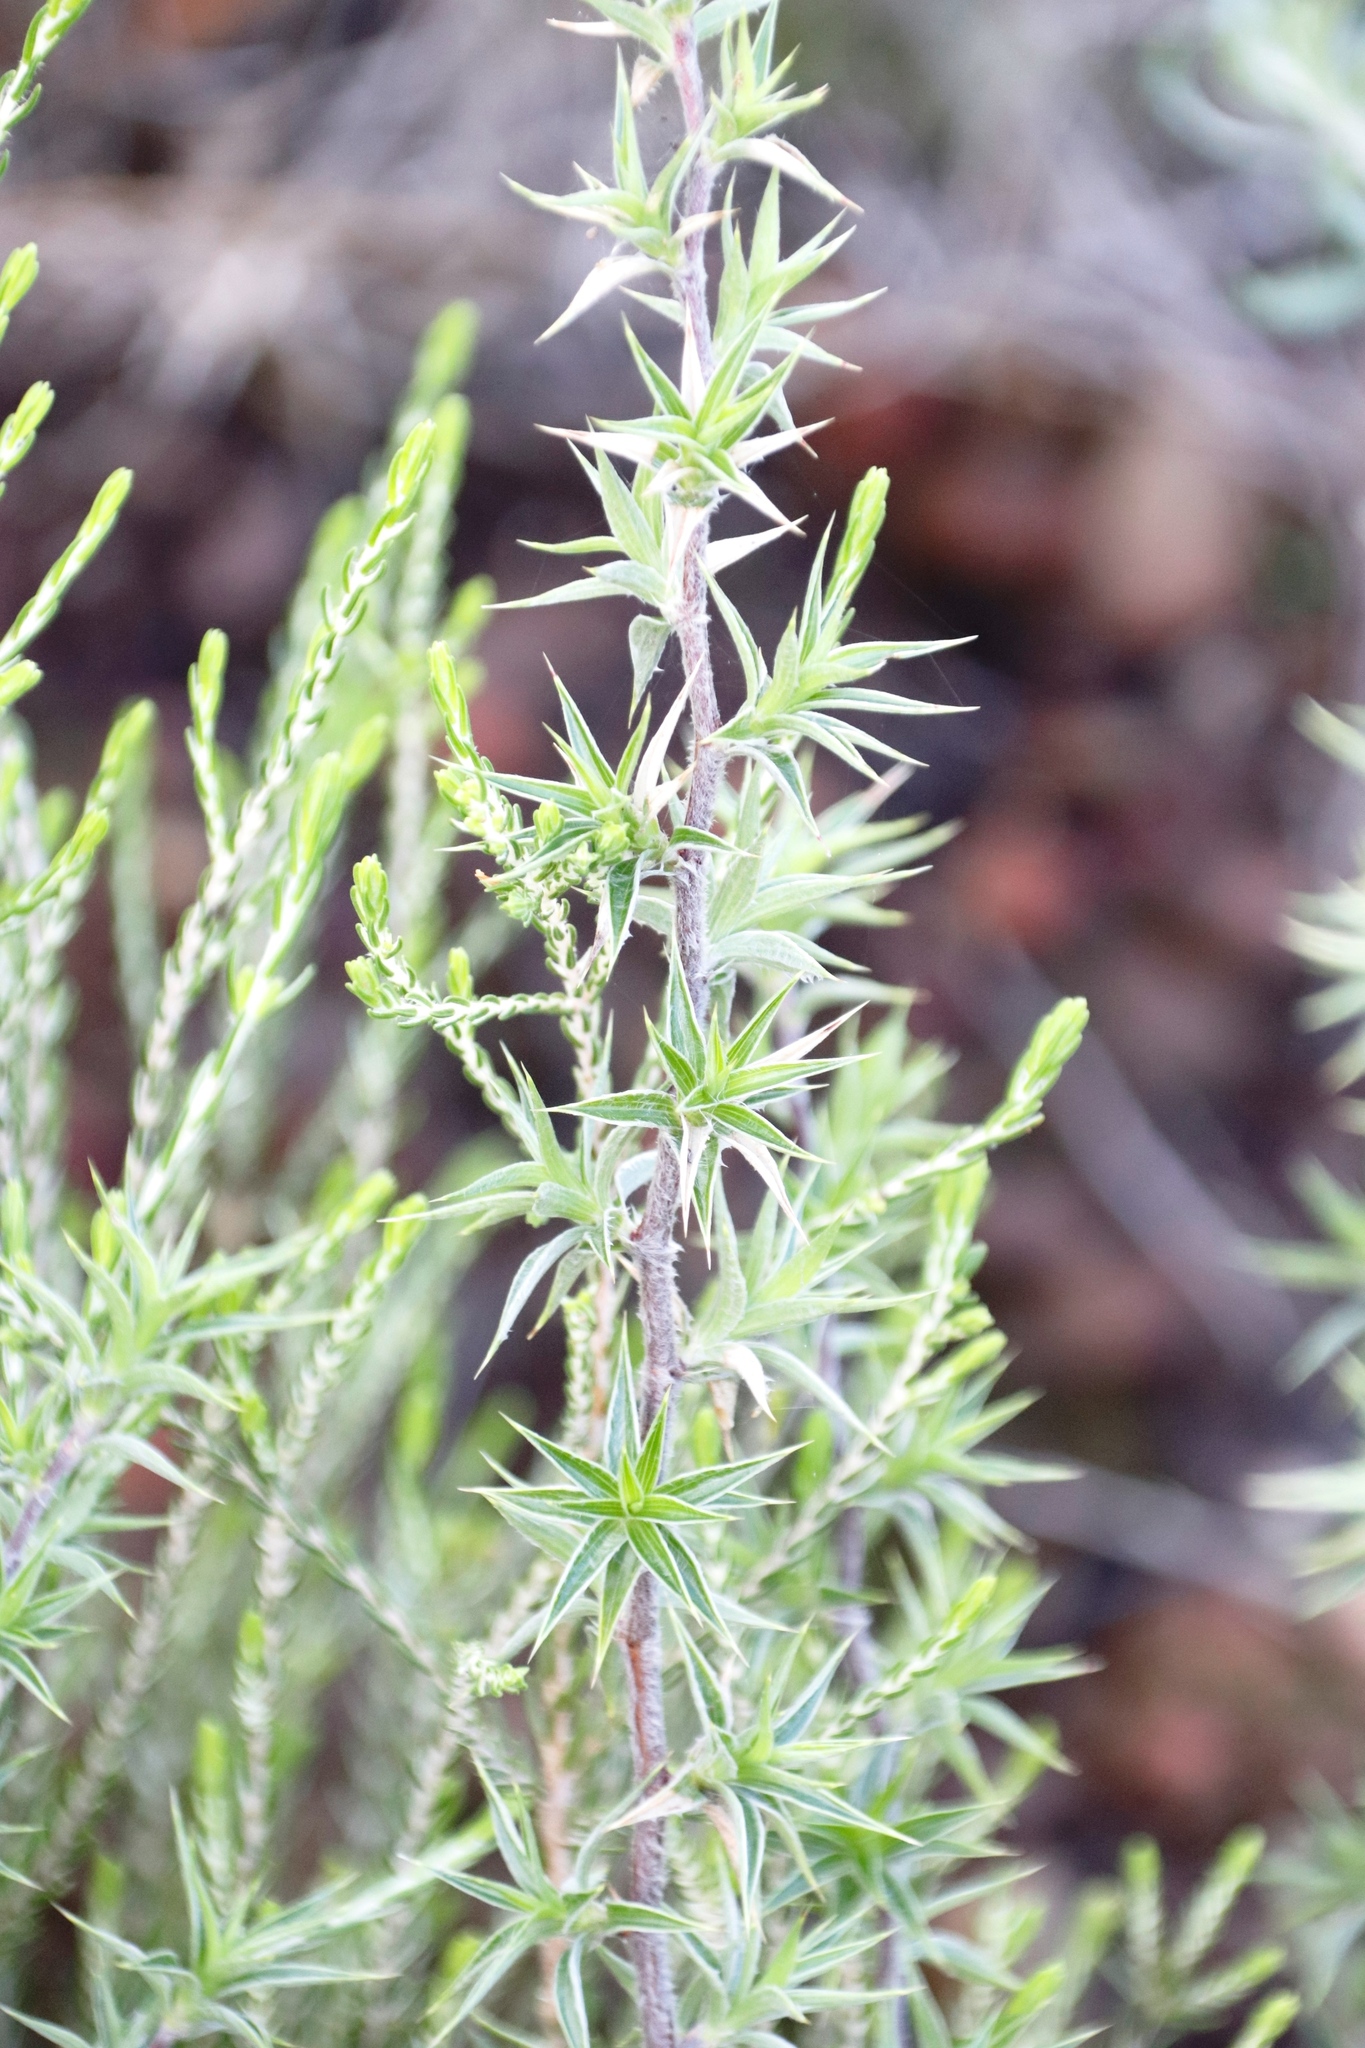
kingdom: Plantae
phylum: Tracheophyta
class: Magnoliopsida
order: Rosales
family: Rosaceae
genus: Cliffortia
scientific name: Cliffortia ruscifolia
